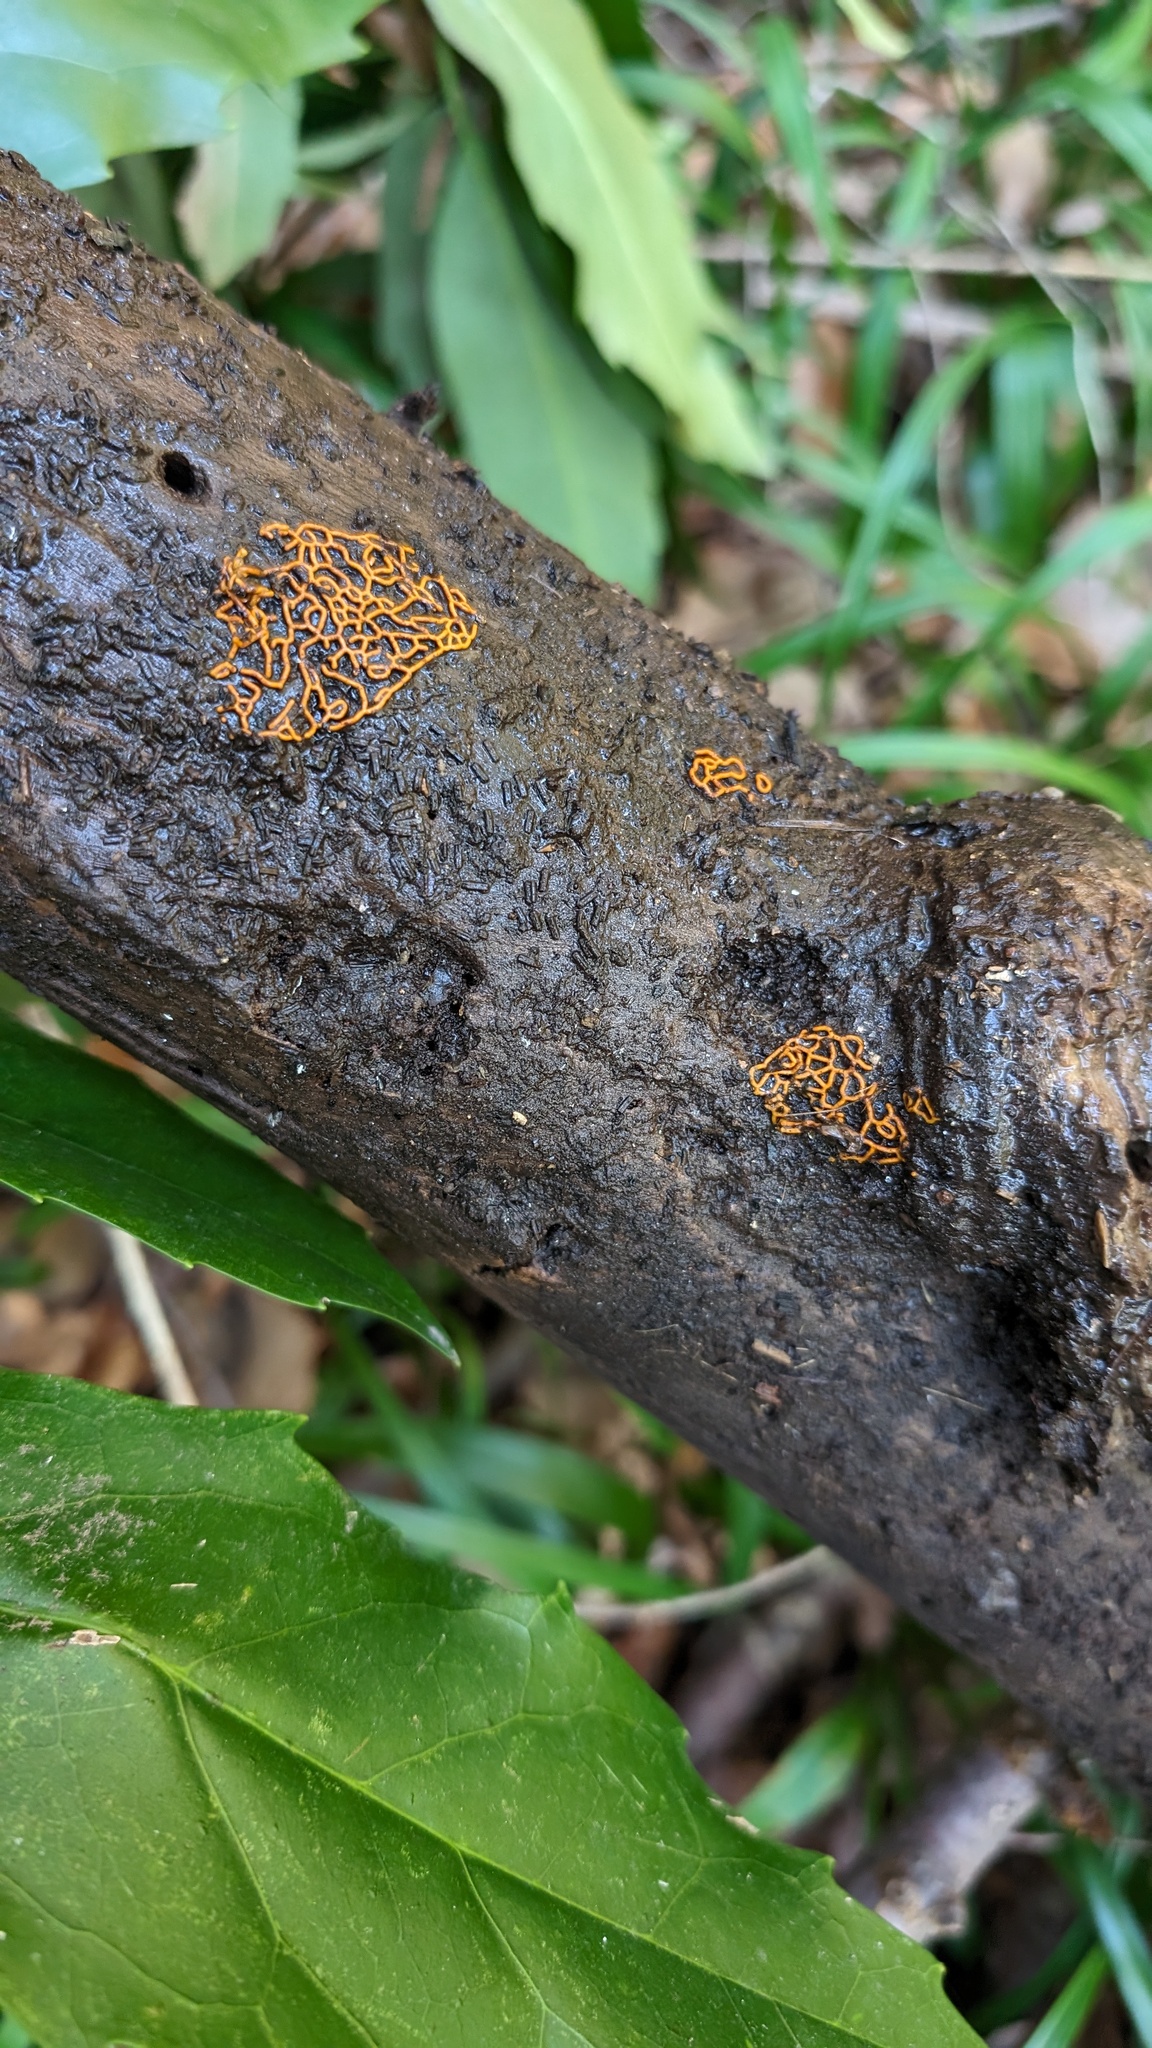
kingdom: Protozoa
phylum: Mycetozoa
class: Myxomycetes
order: Trichiales
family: Arcyriaceae
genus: Hemitrichia
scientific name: Hemitrichia serpula
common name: Pretzel slime mold
